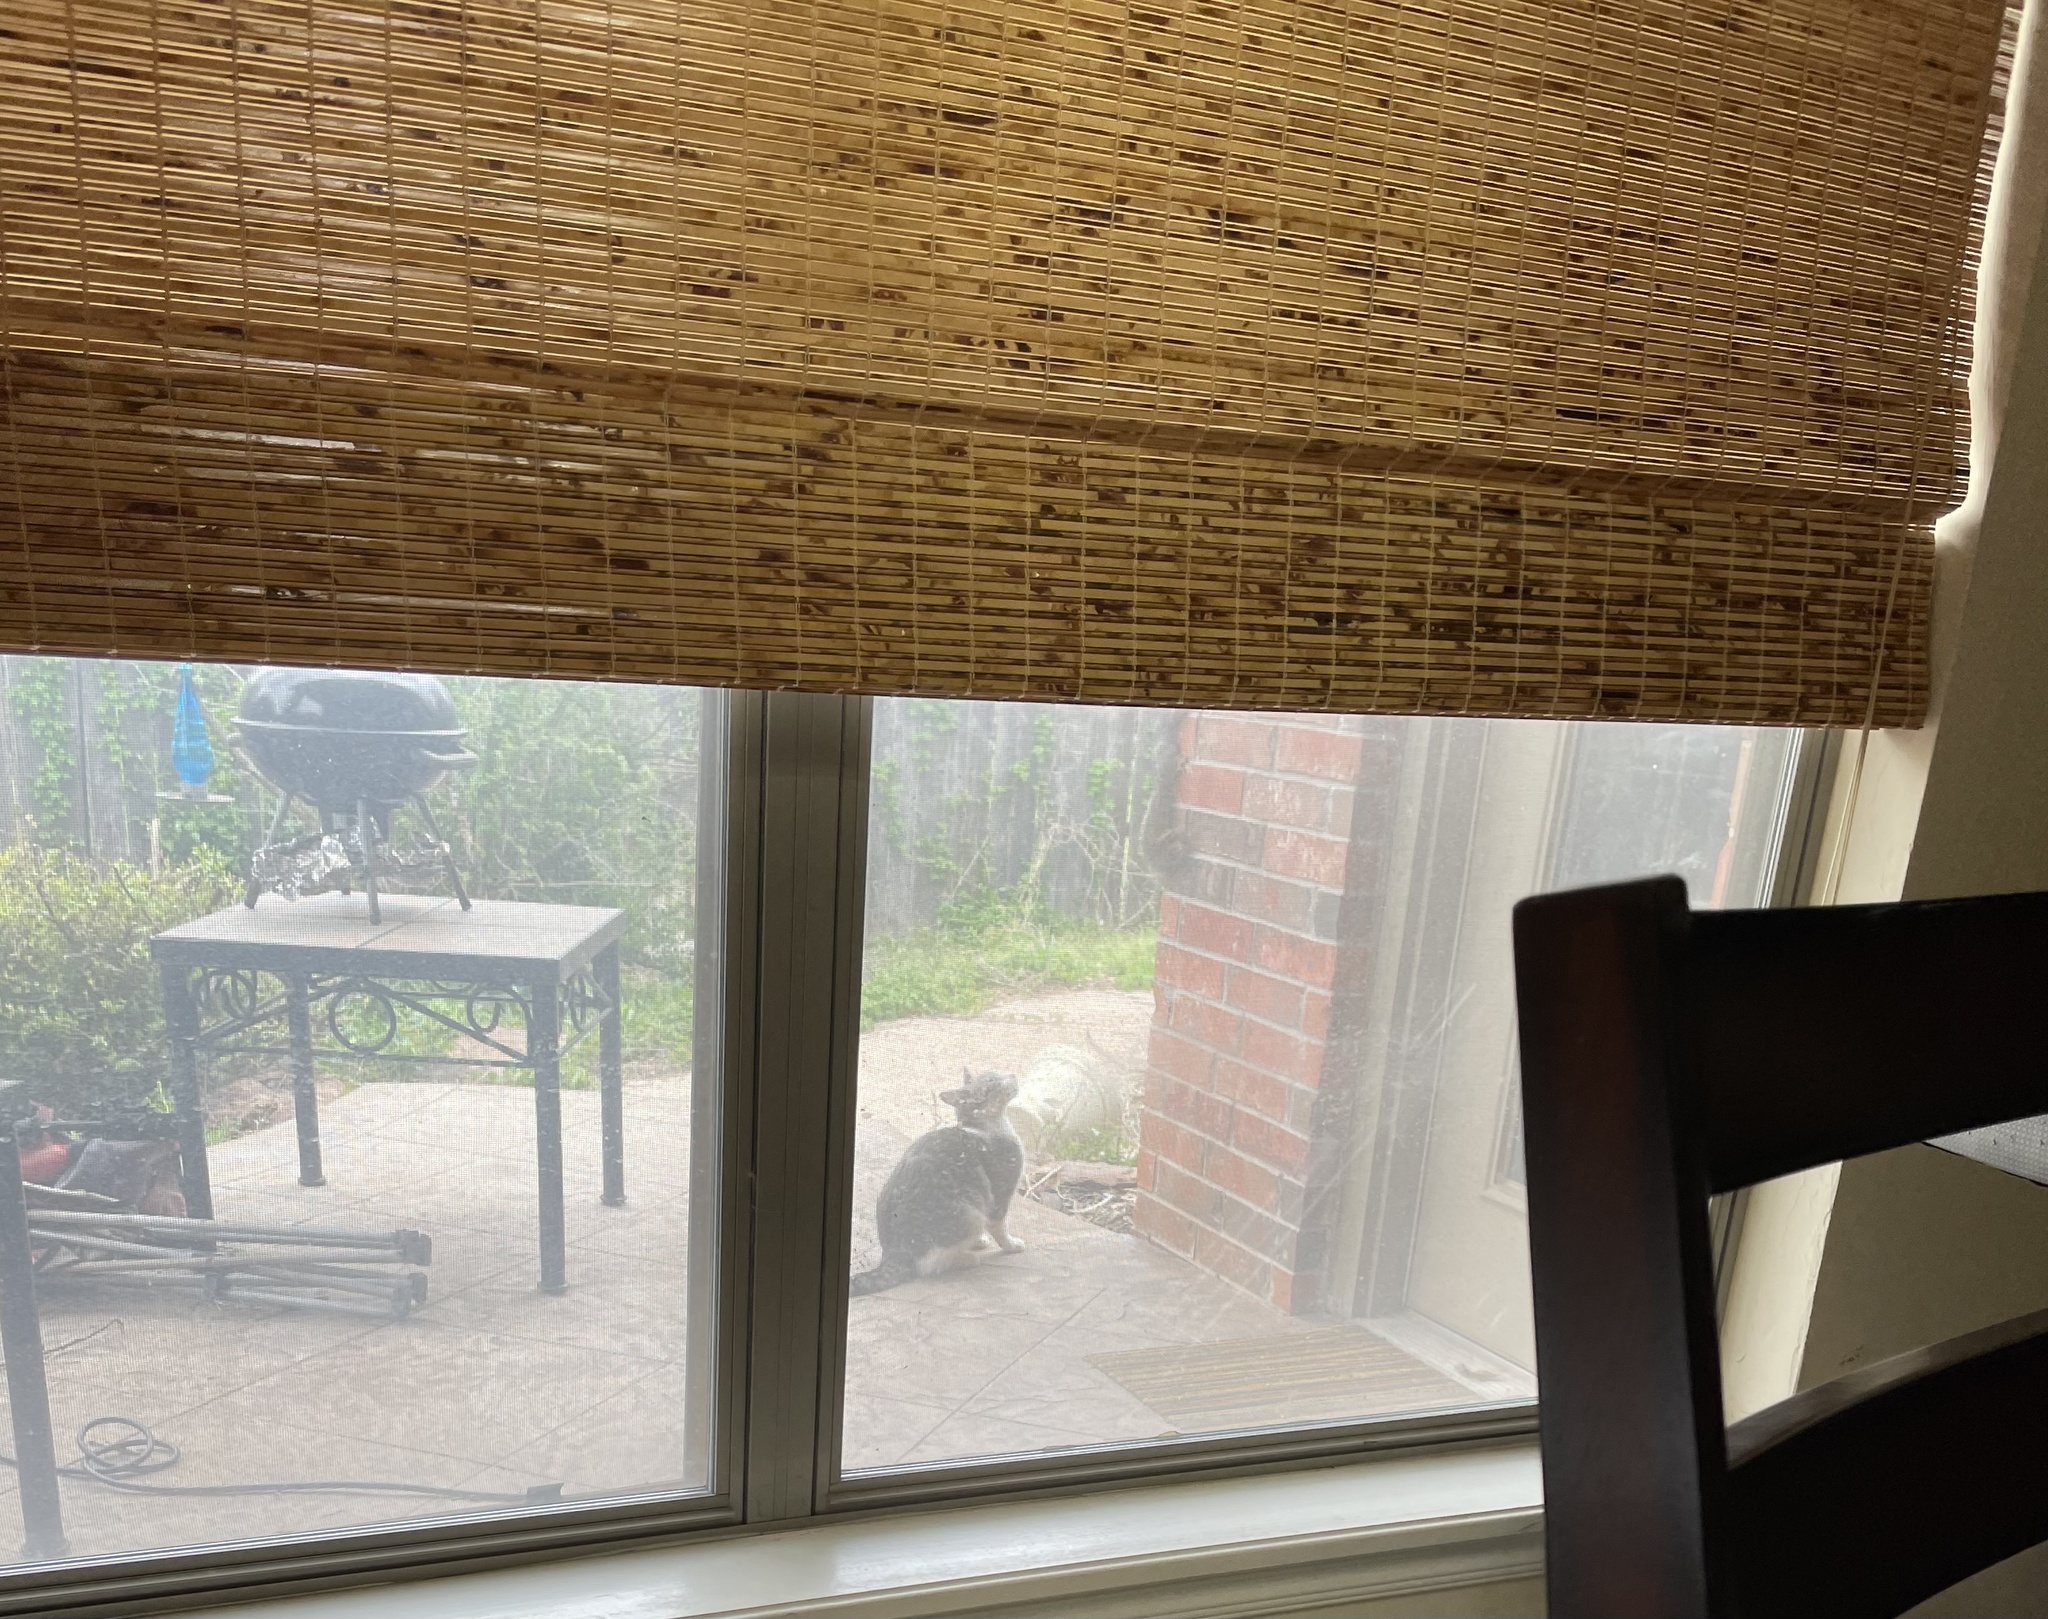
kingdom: Animalia
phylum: Chordata
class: Mammalia
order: Carnivora
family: Felidae
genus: Felis
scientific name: Felis catus
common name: Domestic cat
